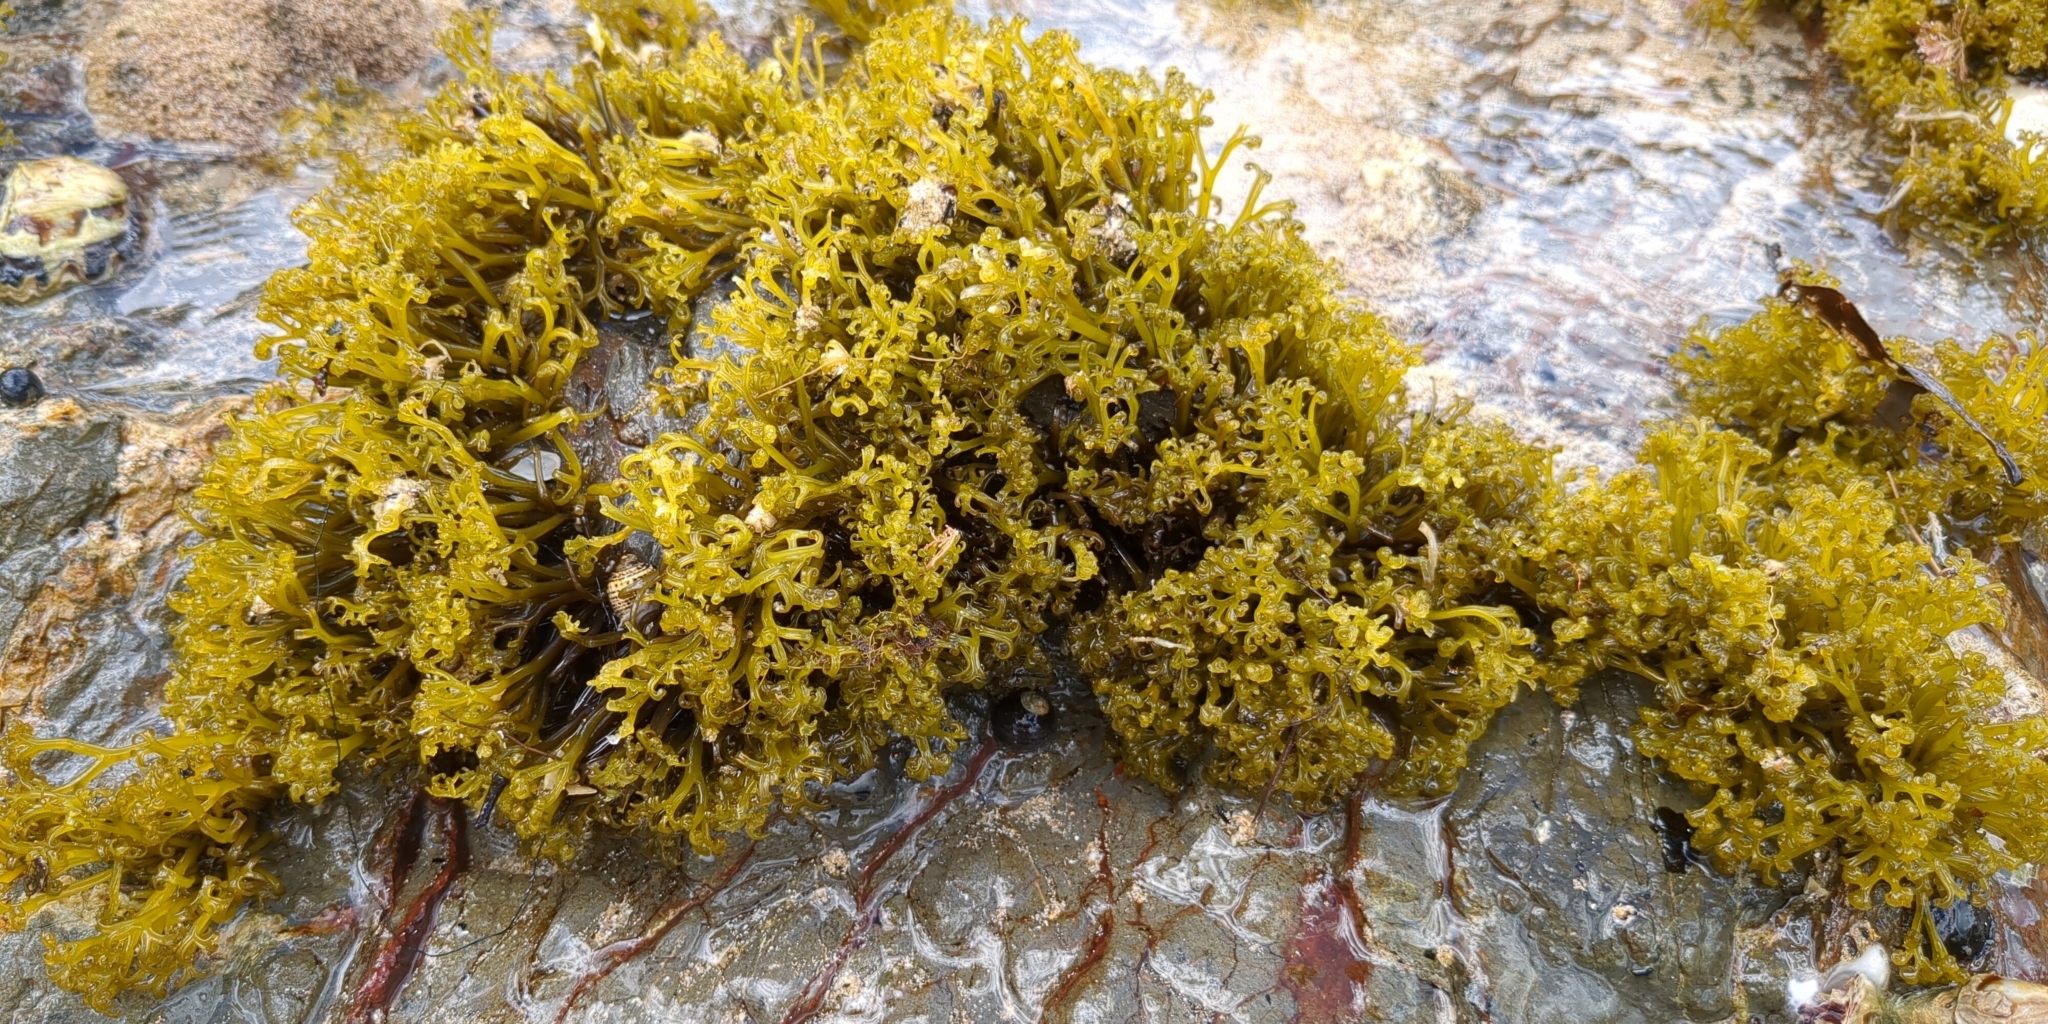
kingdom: Plantae
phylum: Rhodophyta
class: Florideophyceae
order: Gigartinales
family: Gigartinaceae
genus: Psilophycus
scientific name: Psilophycus alveatus
